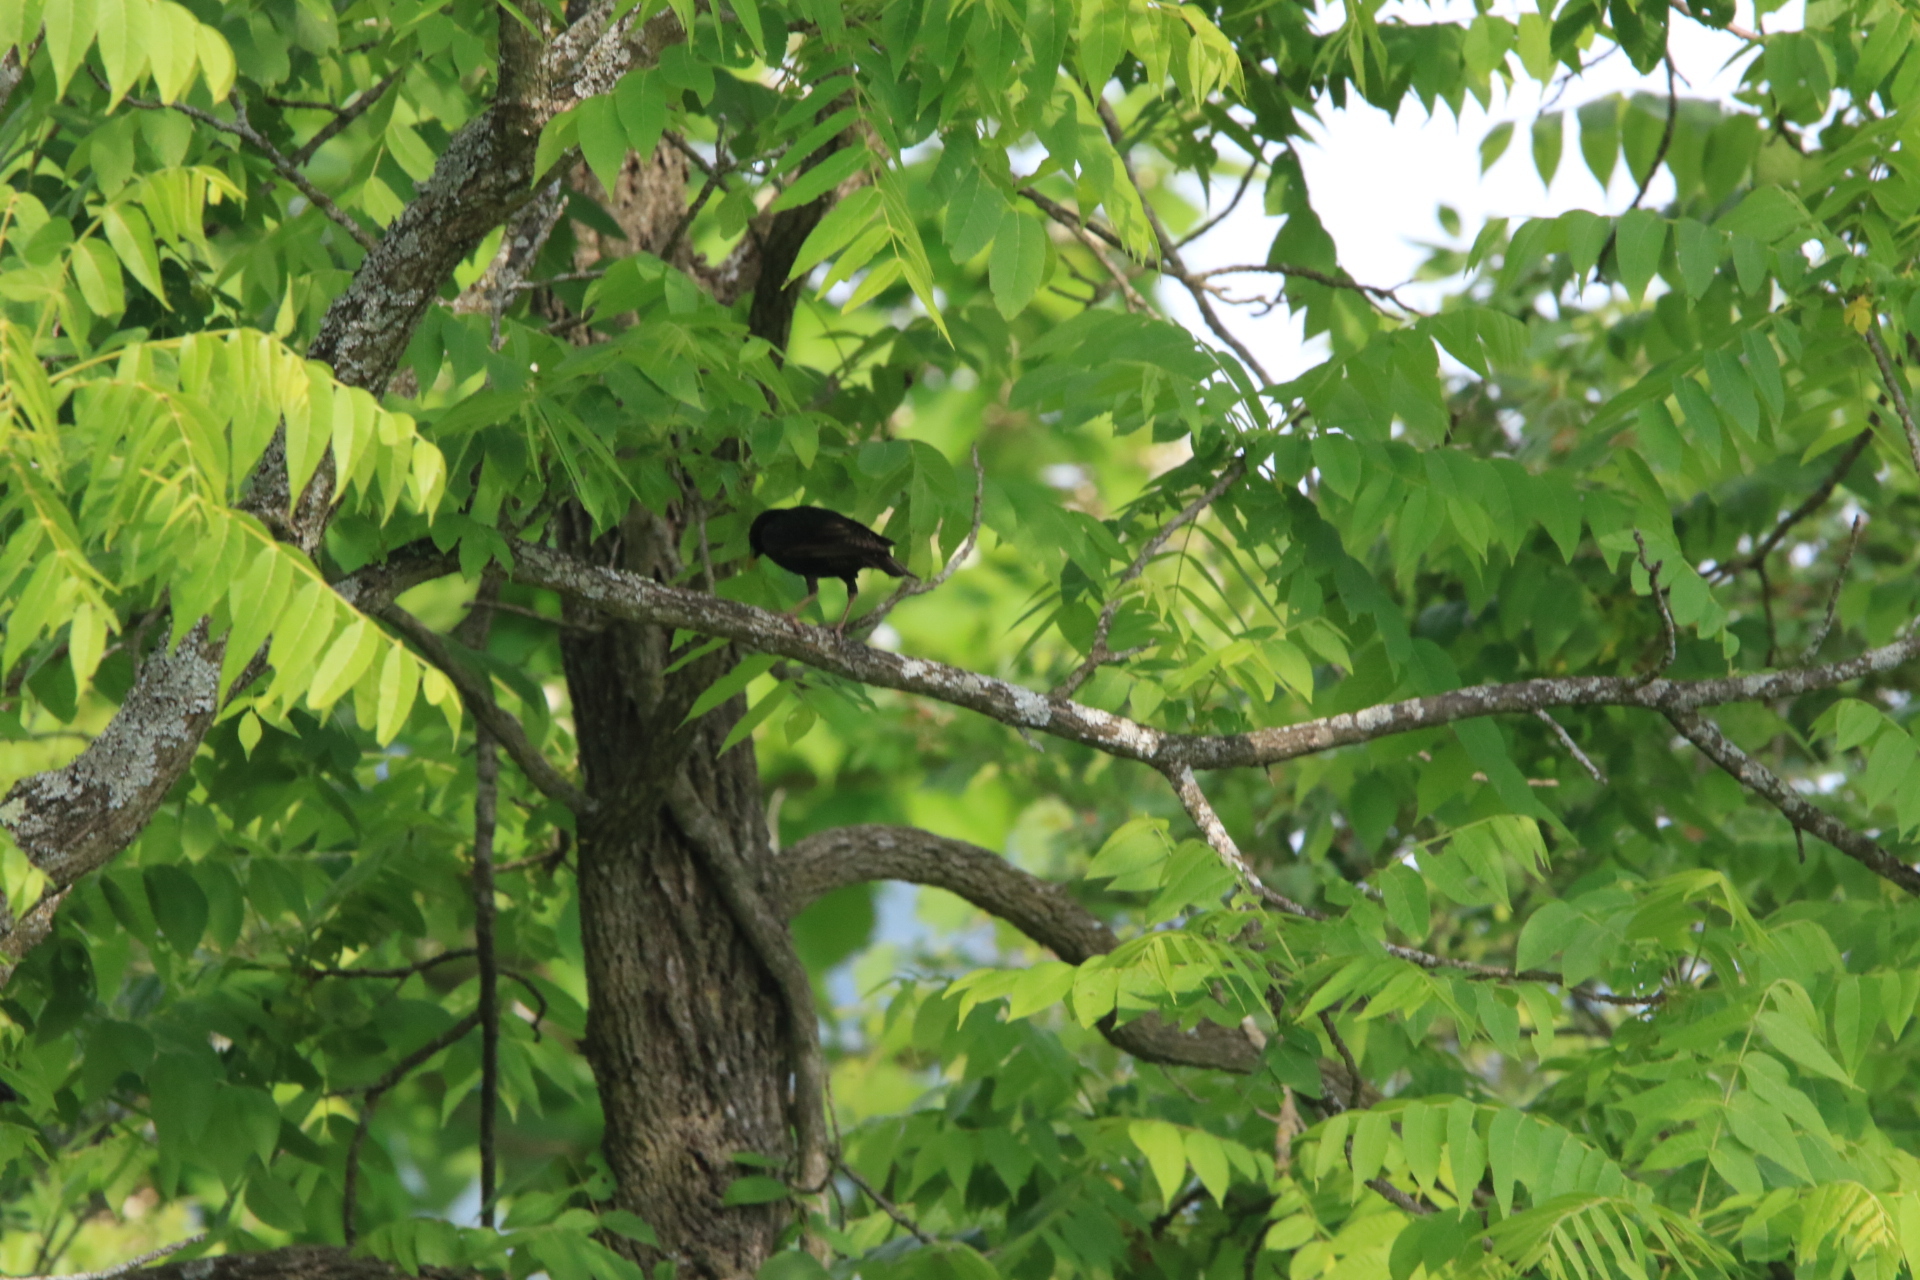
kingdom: Animalia
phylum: Chordata
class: Aves
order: Passeriformes
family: Sturnidae
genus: Sturnus
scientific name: Sturnus vulgaris
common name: Common starling
